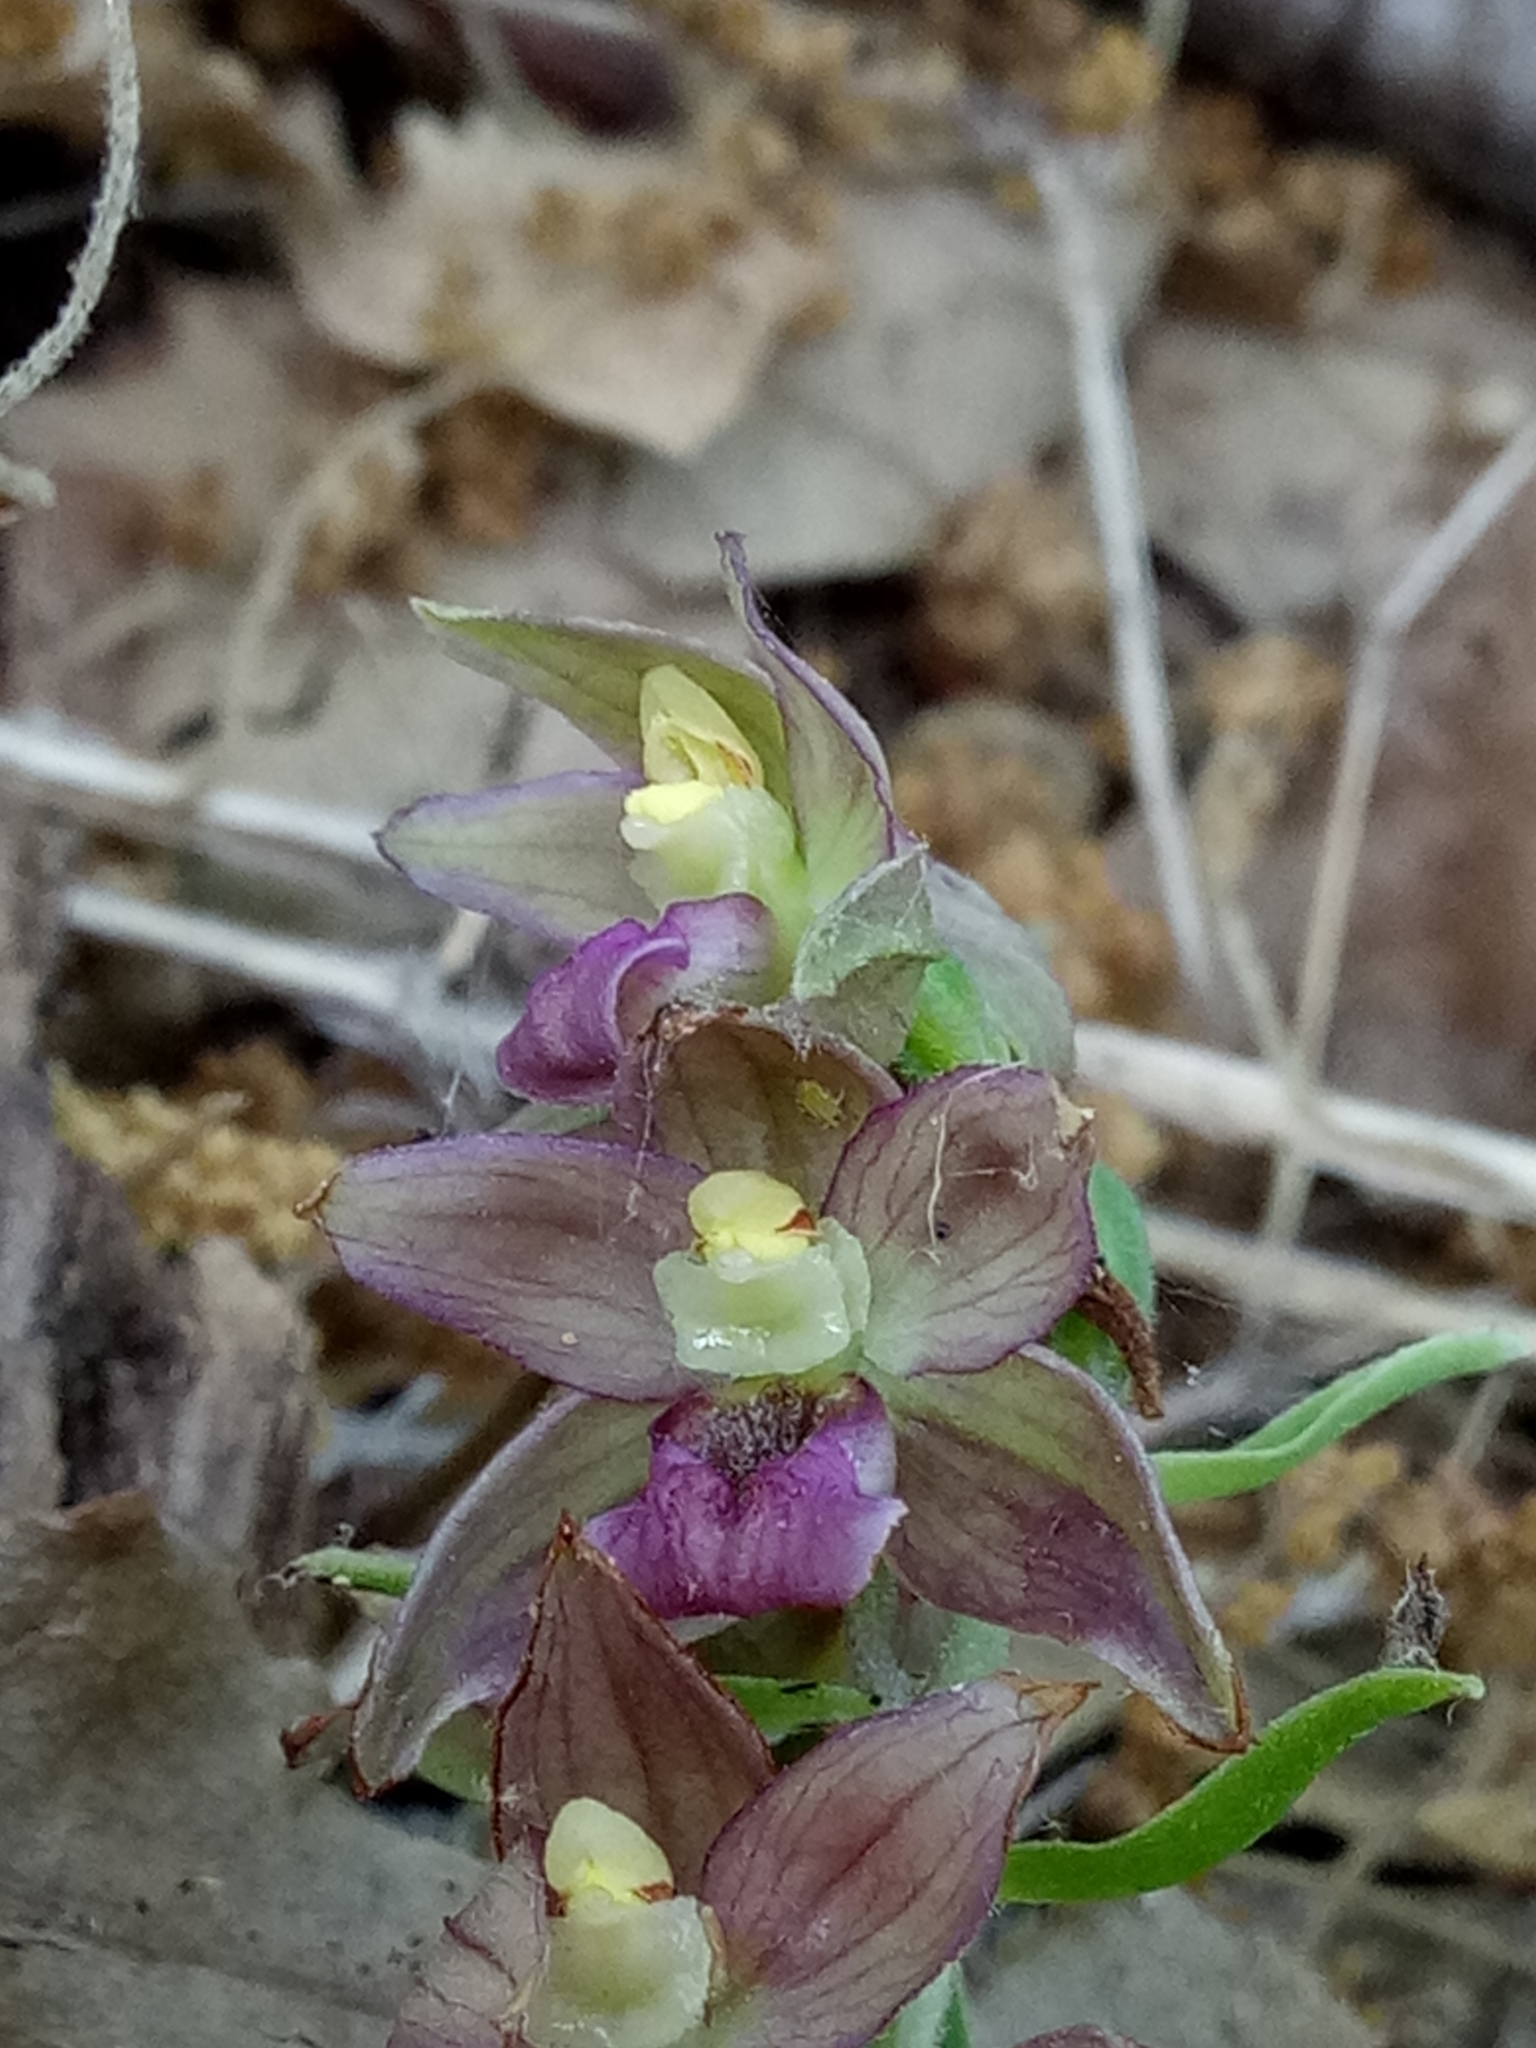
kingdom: Plantae
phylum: Tracheophyta
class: Liliopsida
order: Asparagales
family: Orchidaceae
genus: Epipactis
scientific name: Epipactis helleborine
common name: Broad-leaved helleborine
